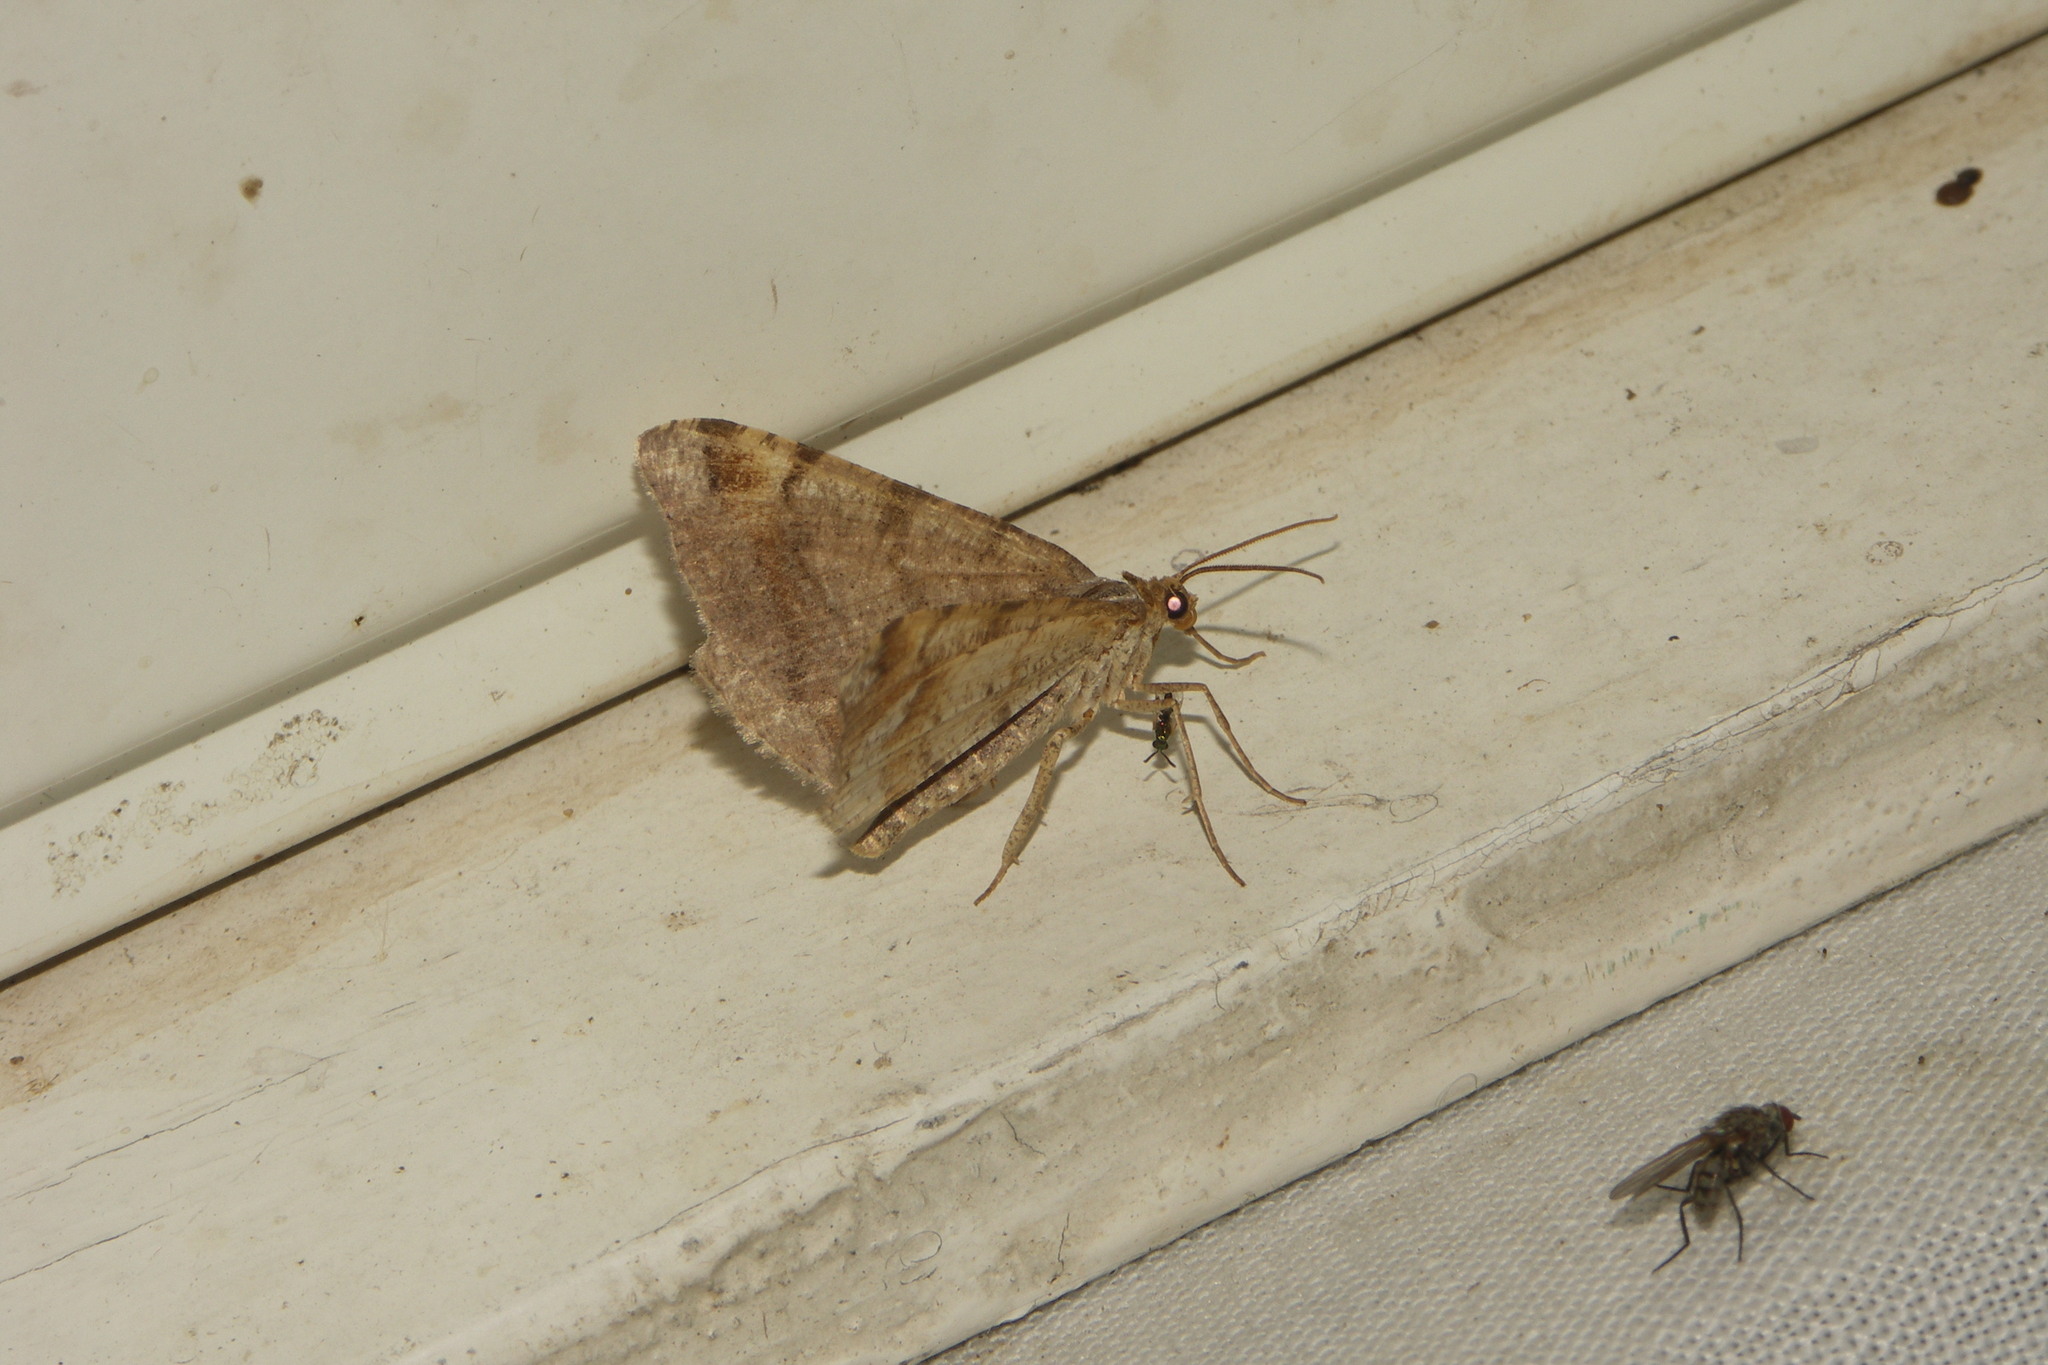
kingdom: Animalia
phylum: Arthropoda
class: Insecta
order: Lepidoptera
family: Geometridae
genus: Macaria
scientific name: Macaria liturata
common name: Tawny-barred angle
